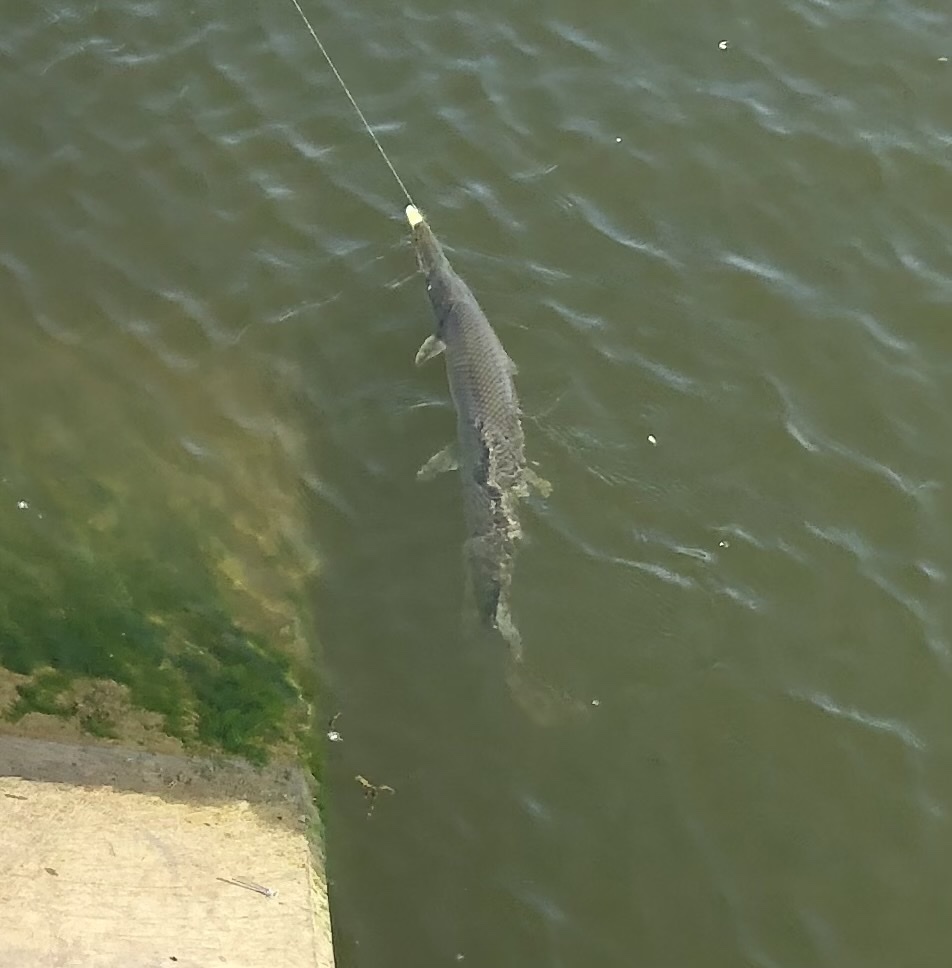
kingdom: Animalia
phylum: Chordata
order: Lepisosteiformes
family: Lepisosteidae
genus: Lepisosteus
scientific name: Lepisosteus platostomus
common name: Shortnose gar
